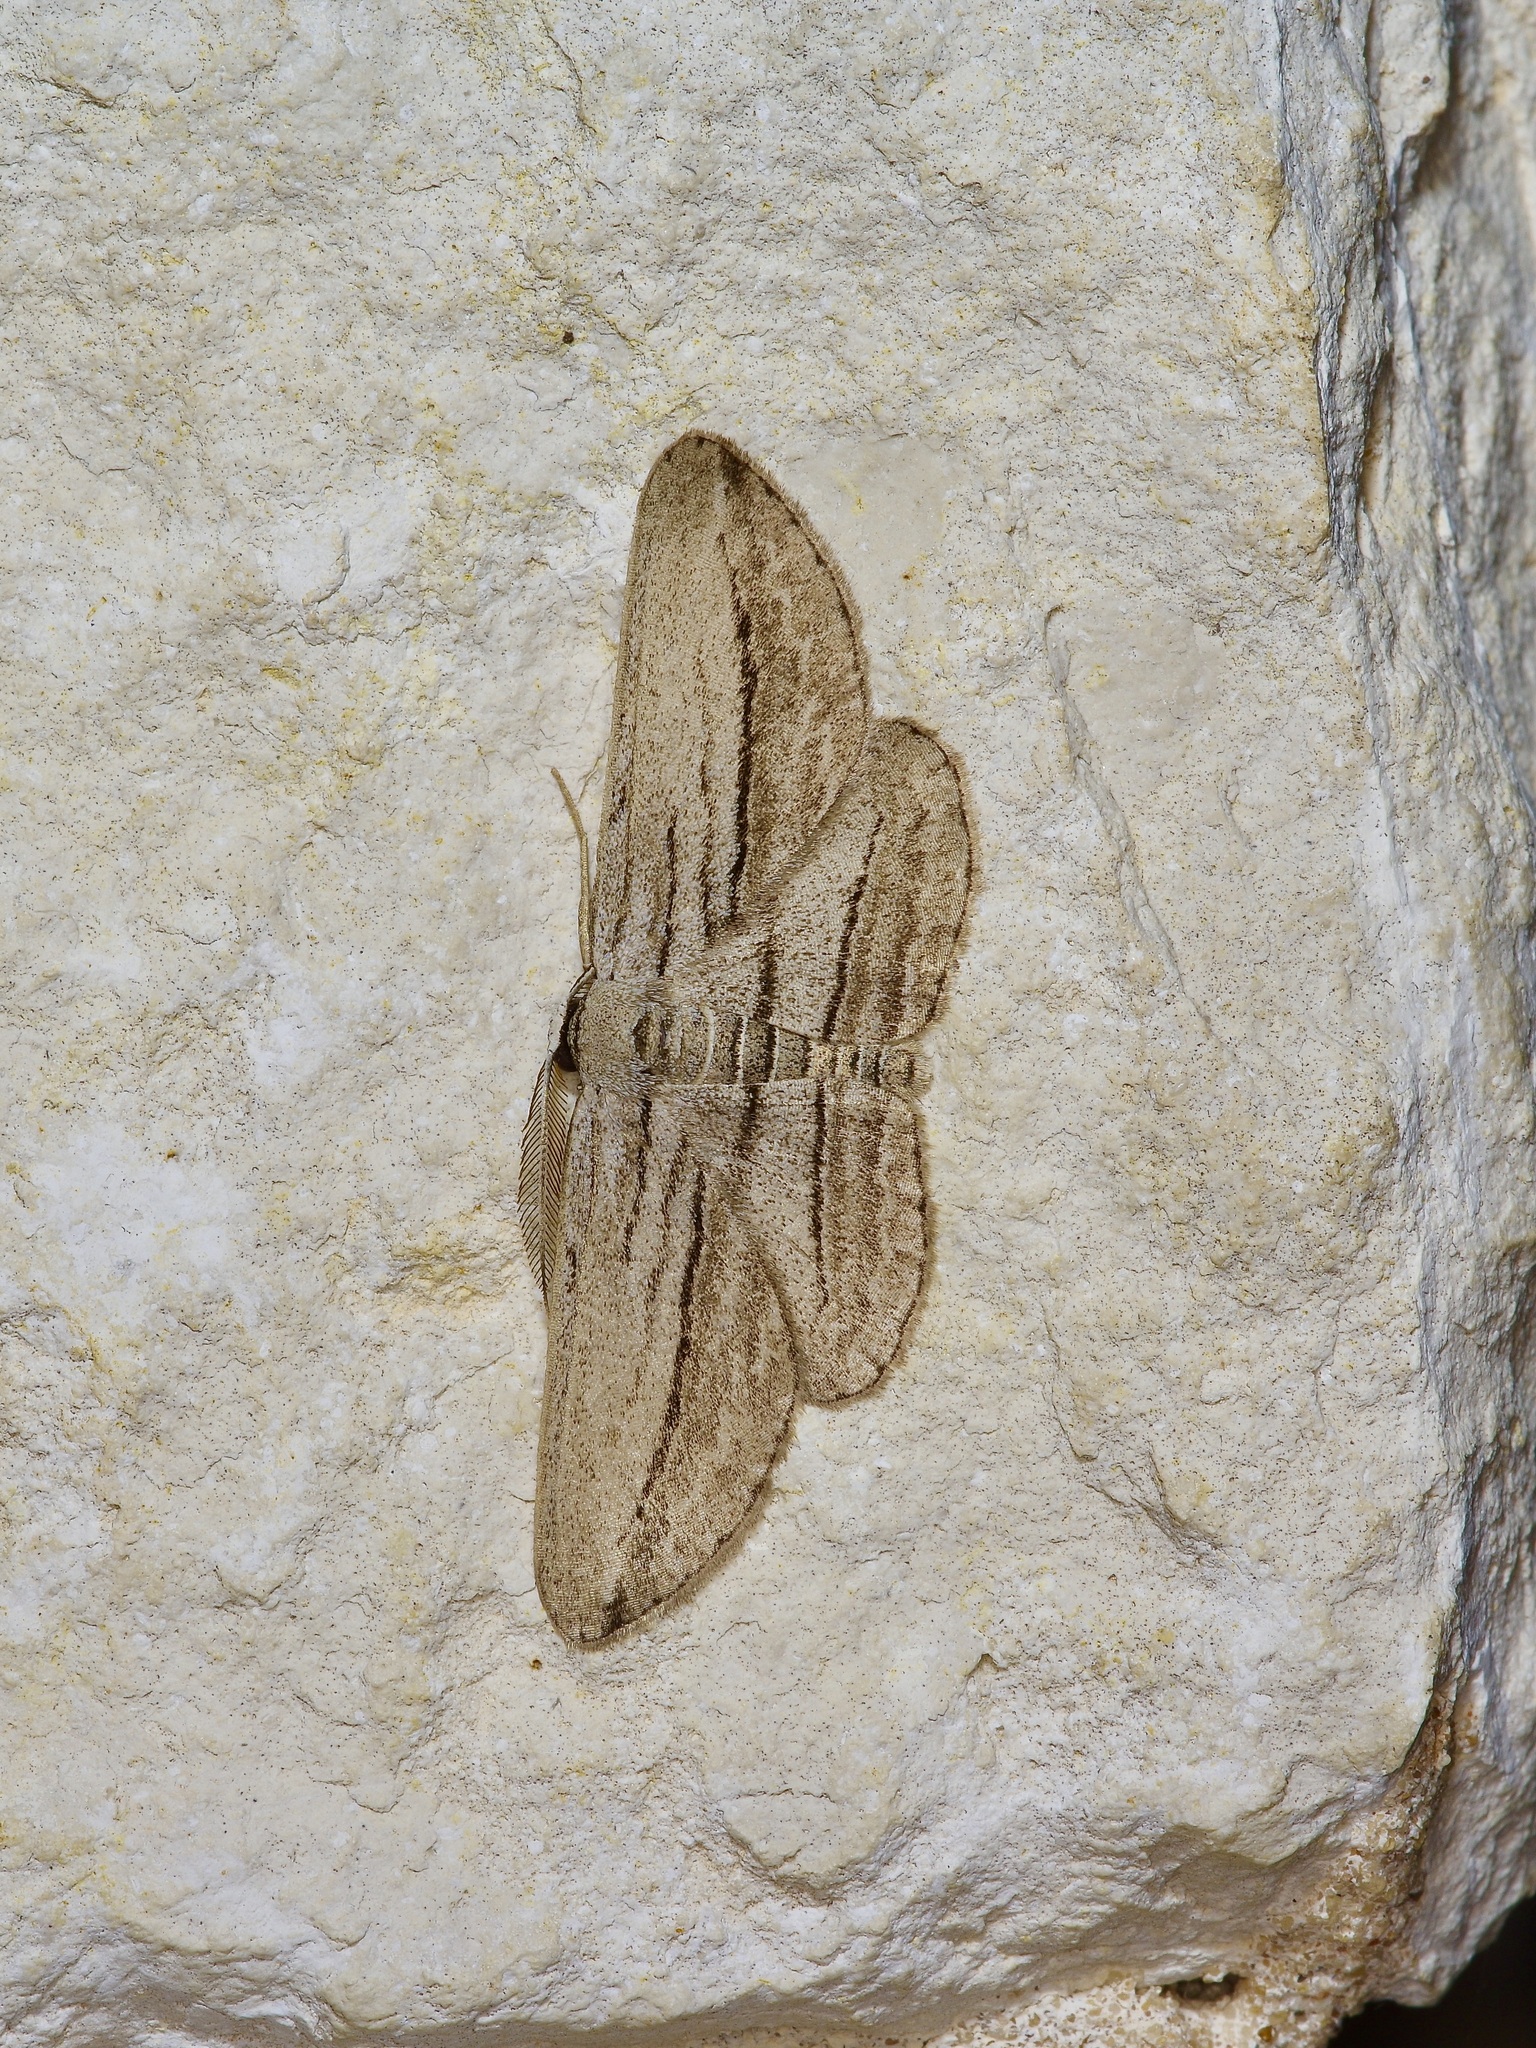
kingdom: Animalia
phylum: Arthropoda
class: Insecta
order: Lepidoptera
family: Geometridae
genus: Glena
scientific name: Glena quinquelinearia
